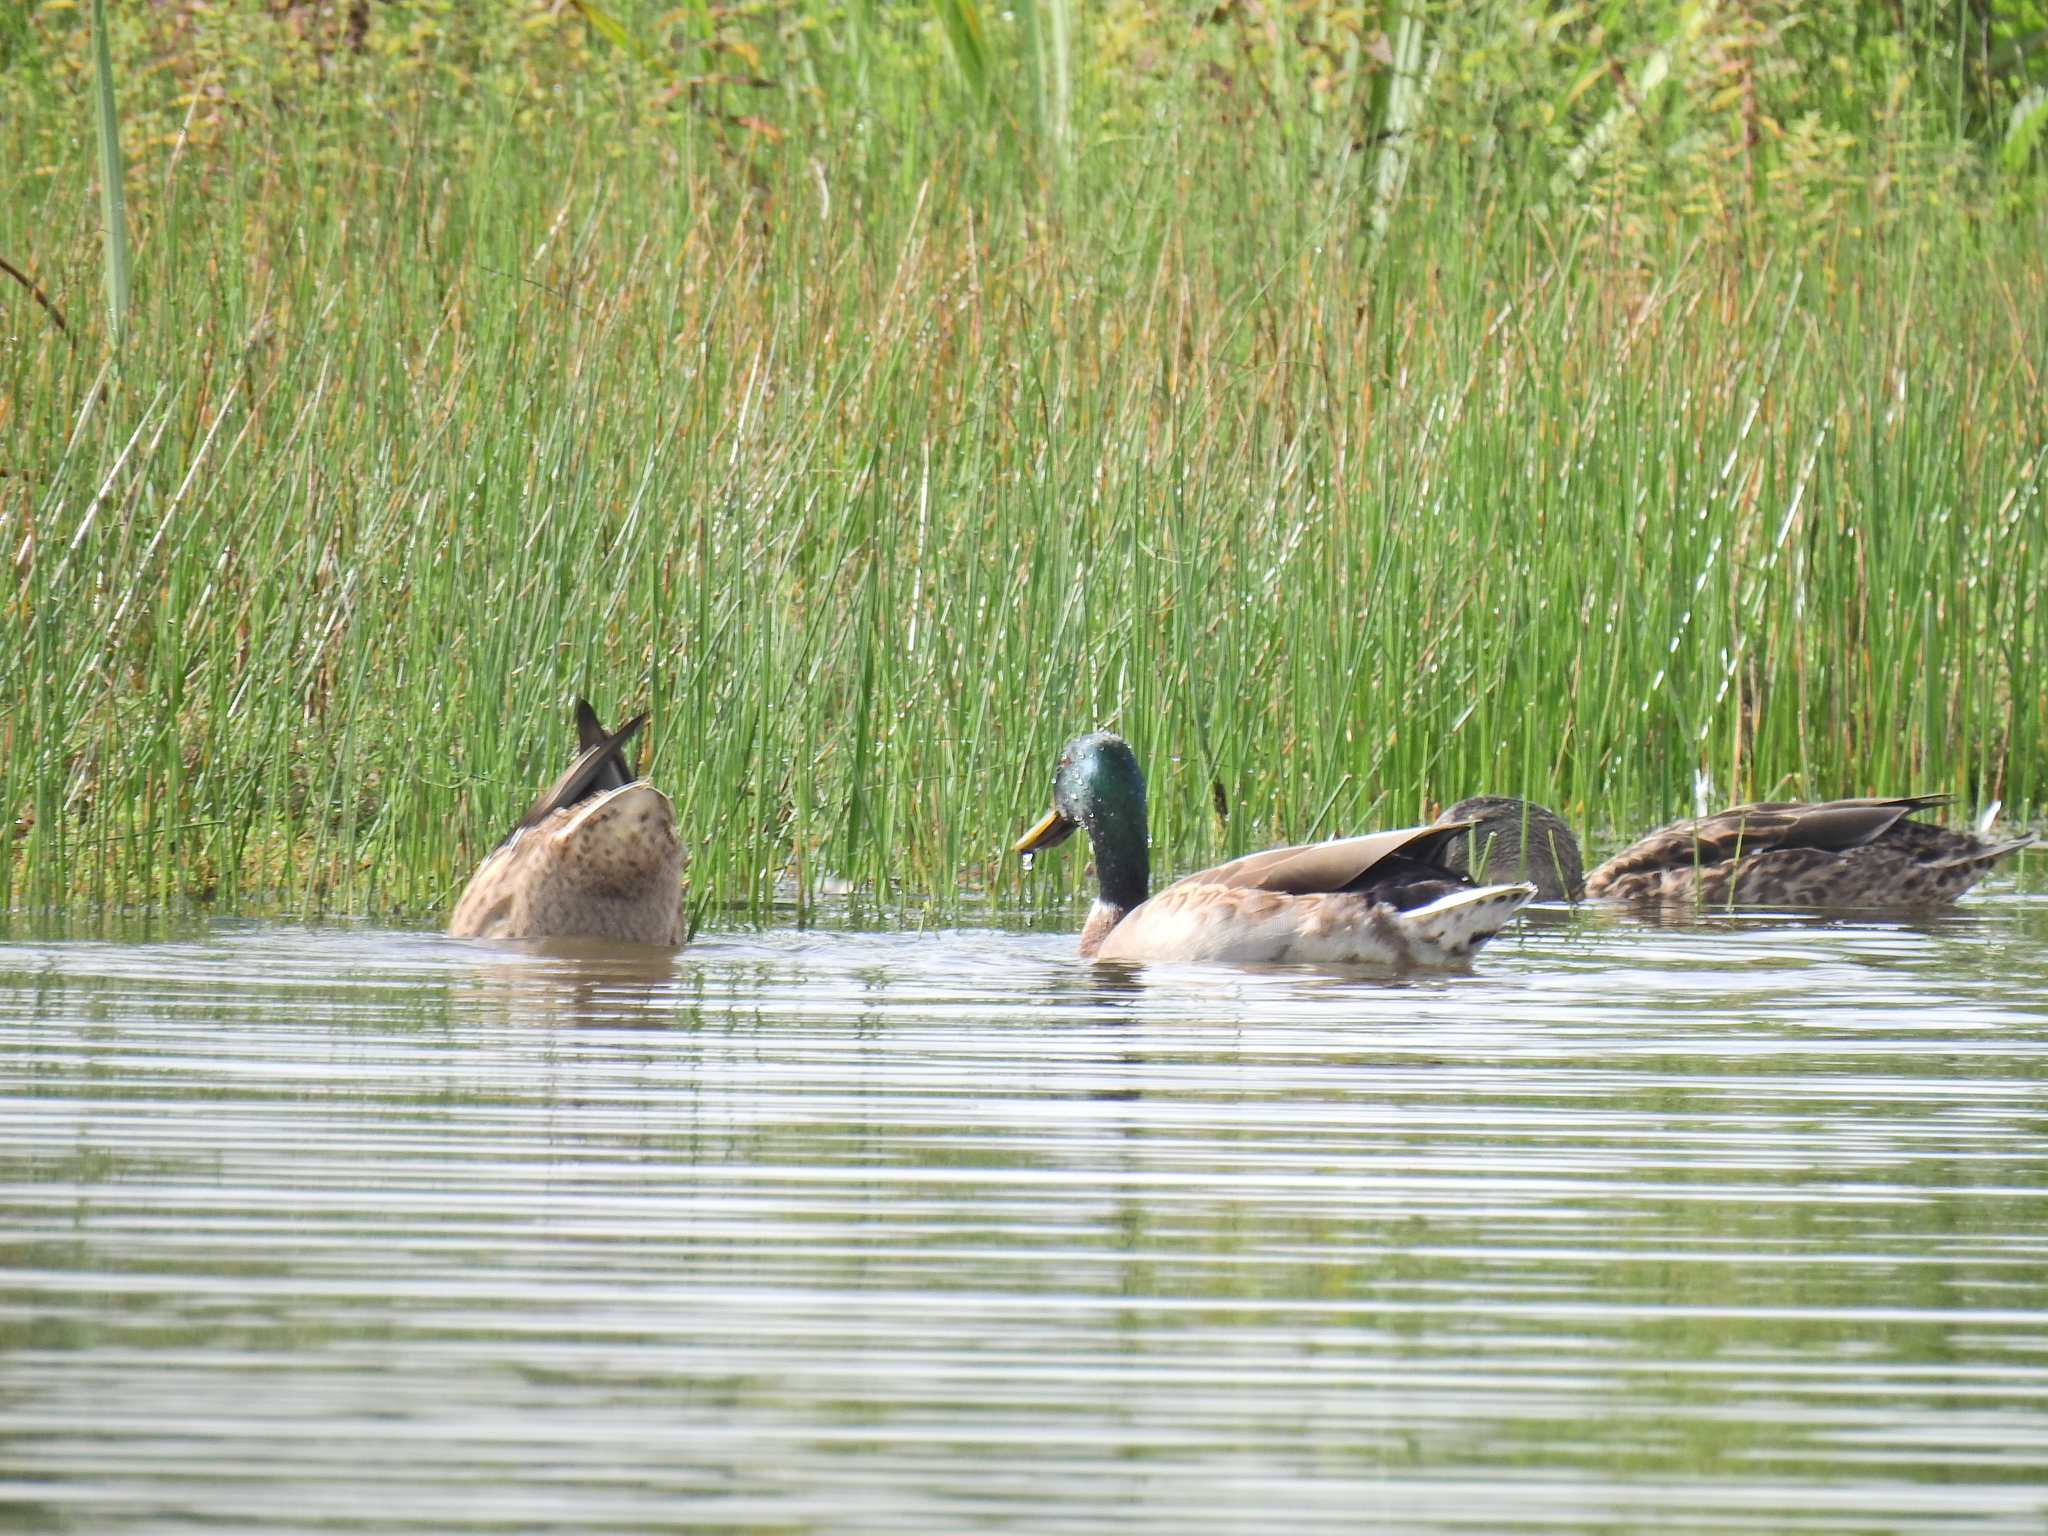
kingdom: Animalia
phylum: Chordata
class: Aves
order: Anseriformes
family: Anatidae
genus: Anas
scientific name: Anas platyrhynchos
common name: Mallard
